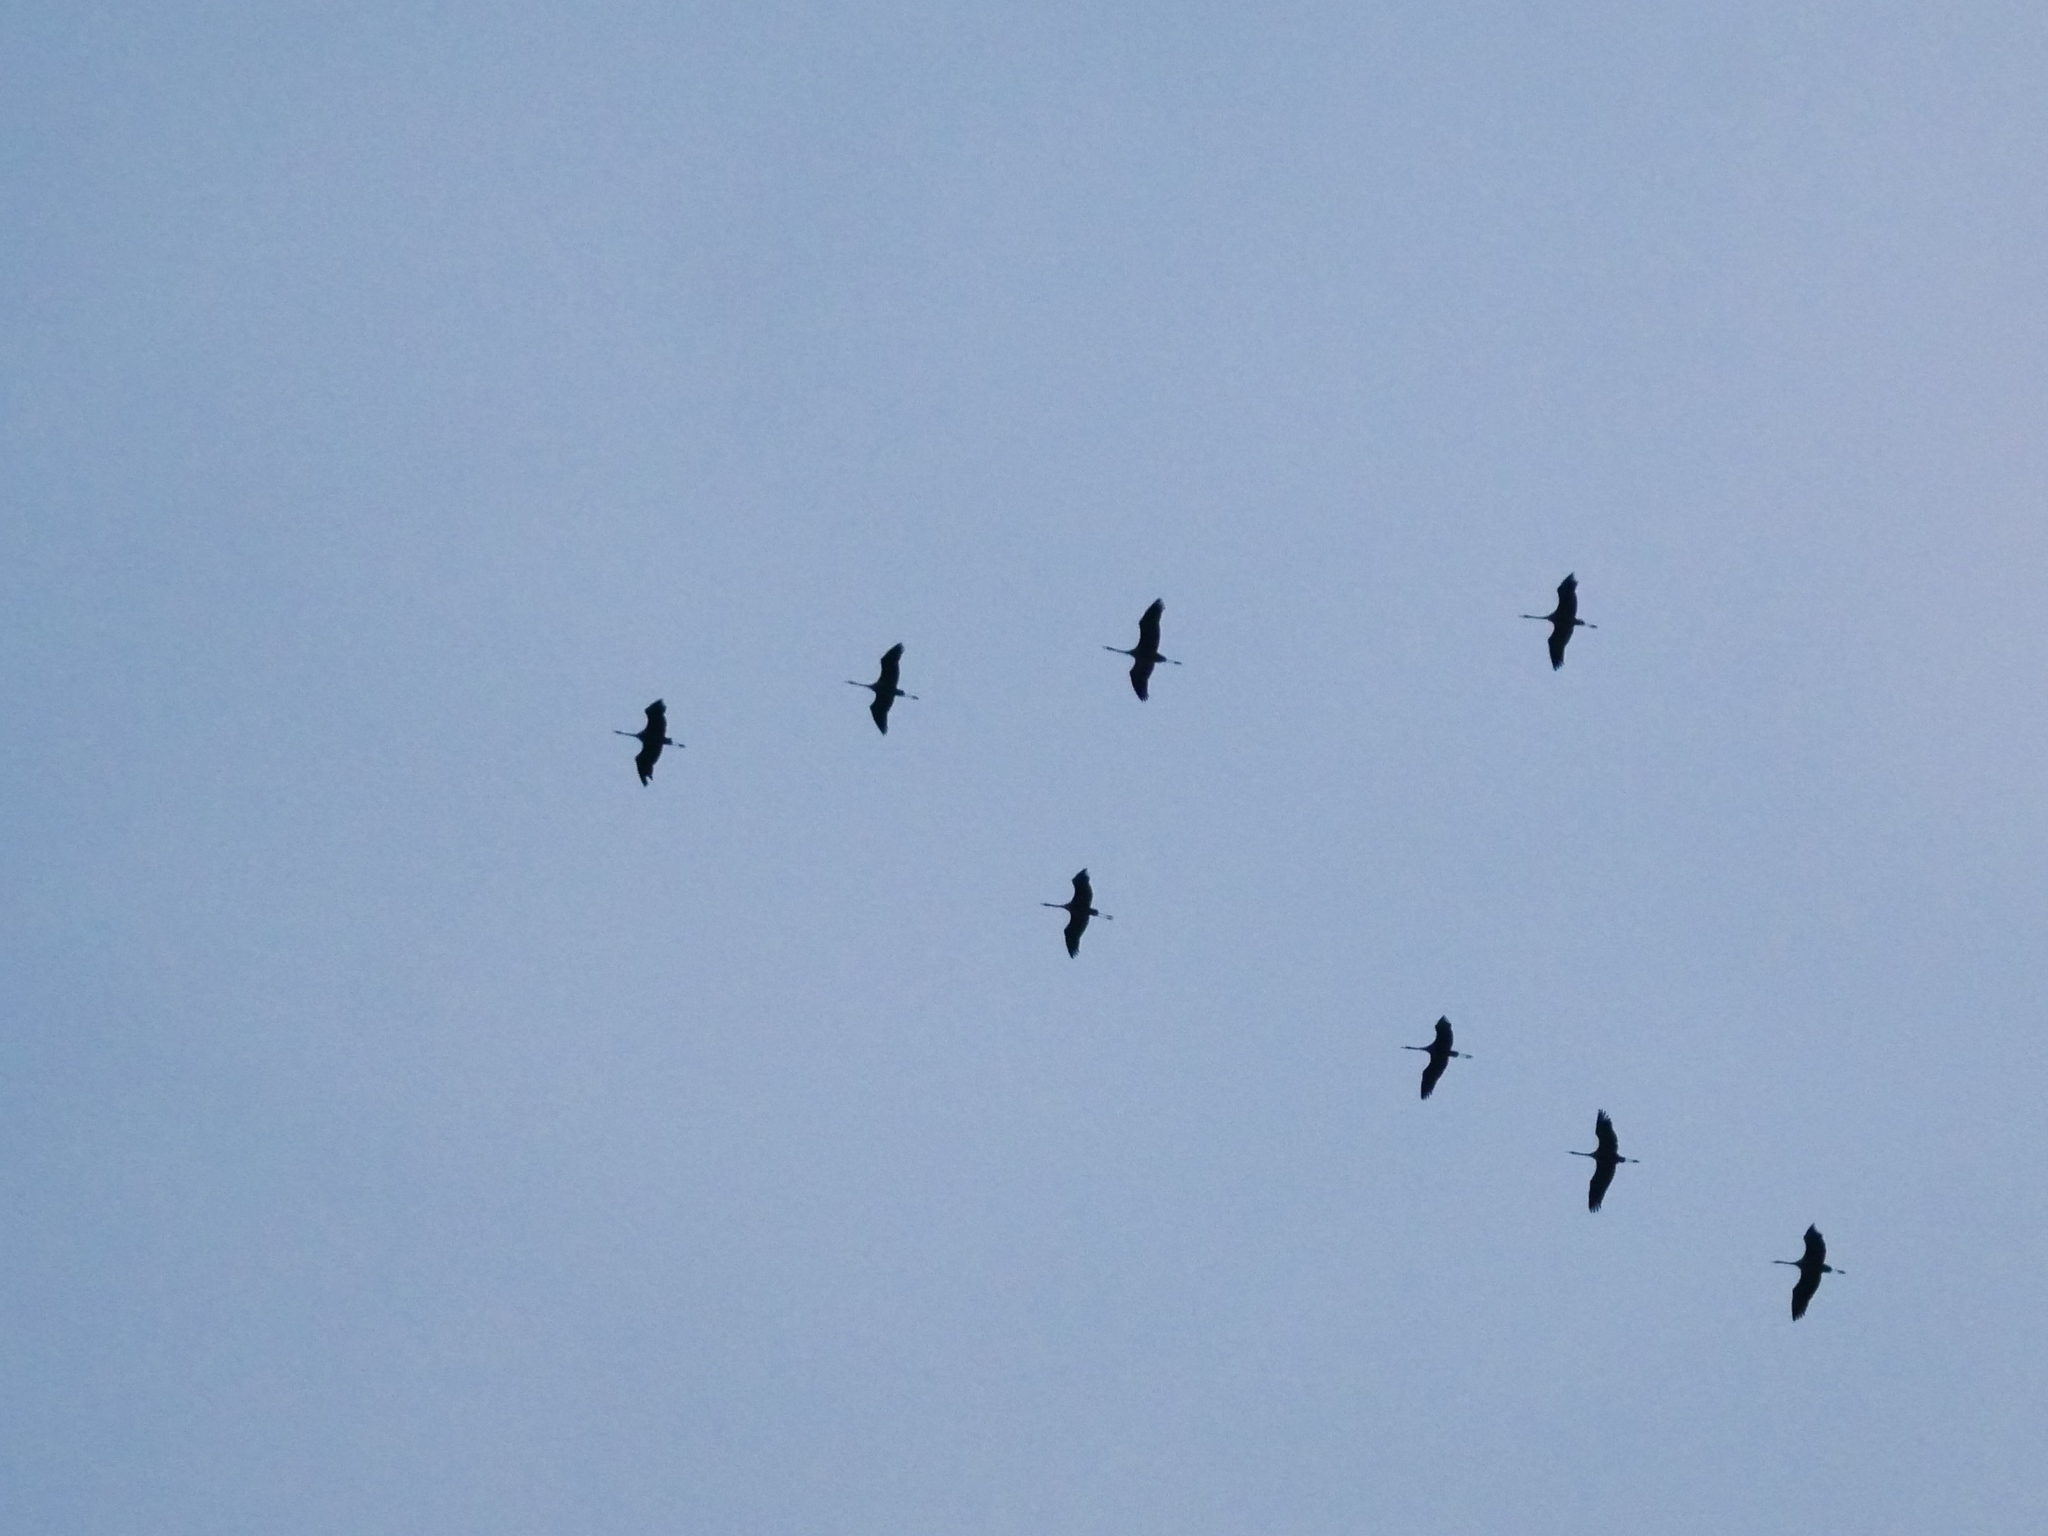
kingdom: Animalia
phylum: Chordata
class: Aves
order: Gruiformes
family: Gruidae
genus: Grus
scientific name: Grus grus
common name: Common crane
